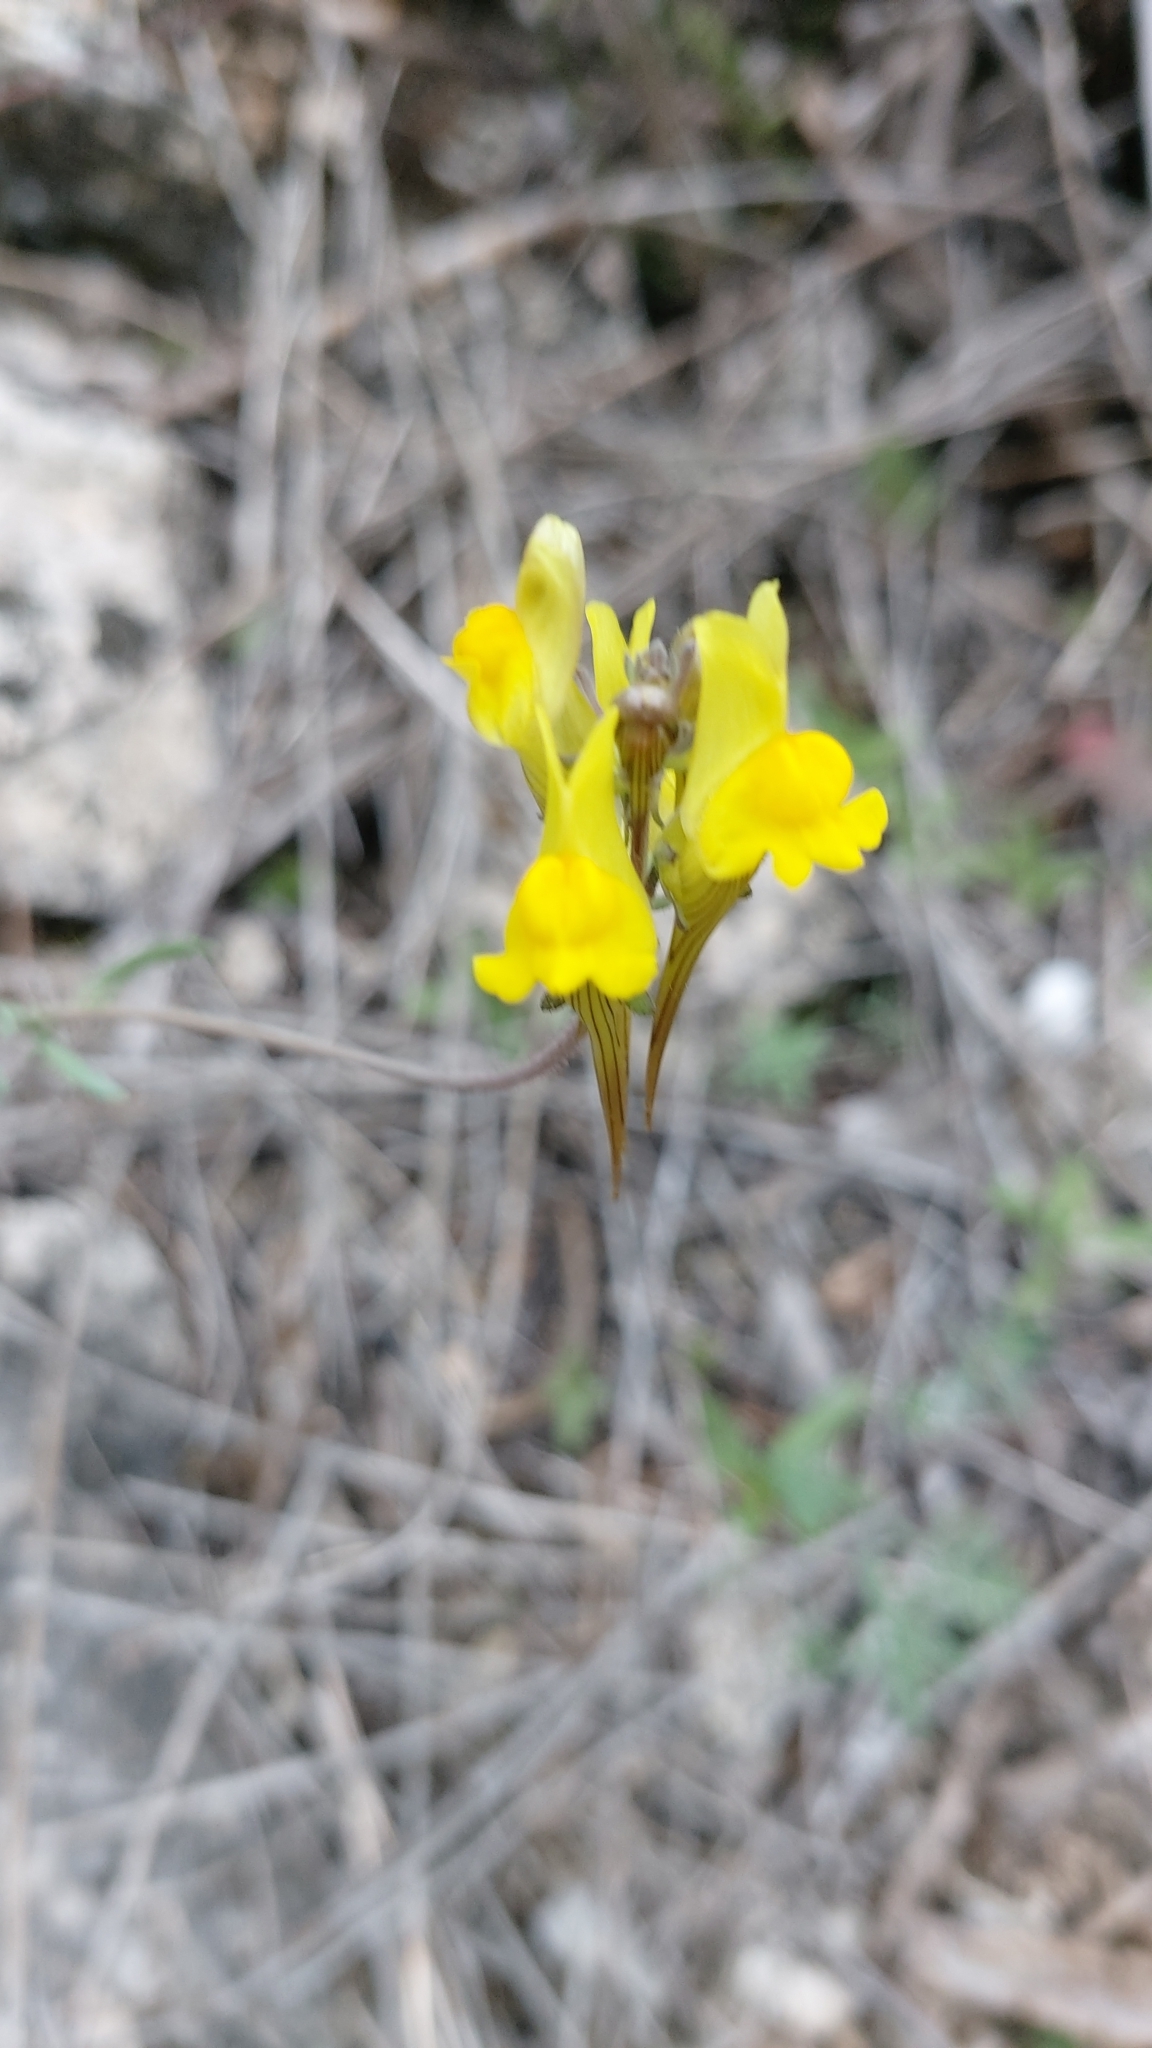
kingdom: Plantae
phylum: Tracheophyta
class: Magnoliopsida
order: Lamiales
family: Plantaginaceae
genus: Linaria
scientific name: Linaria supina
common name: Prostrate toadflax
